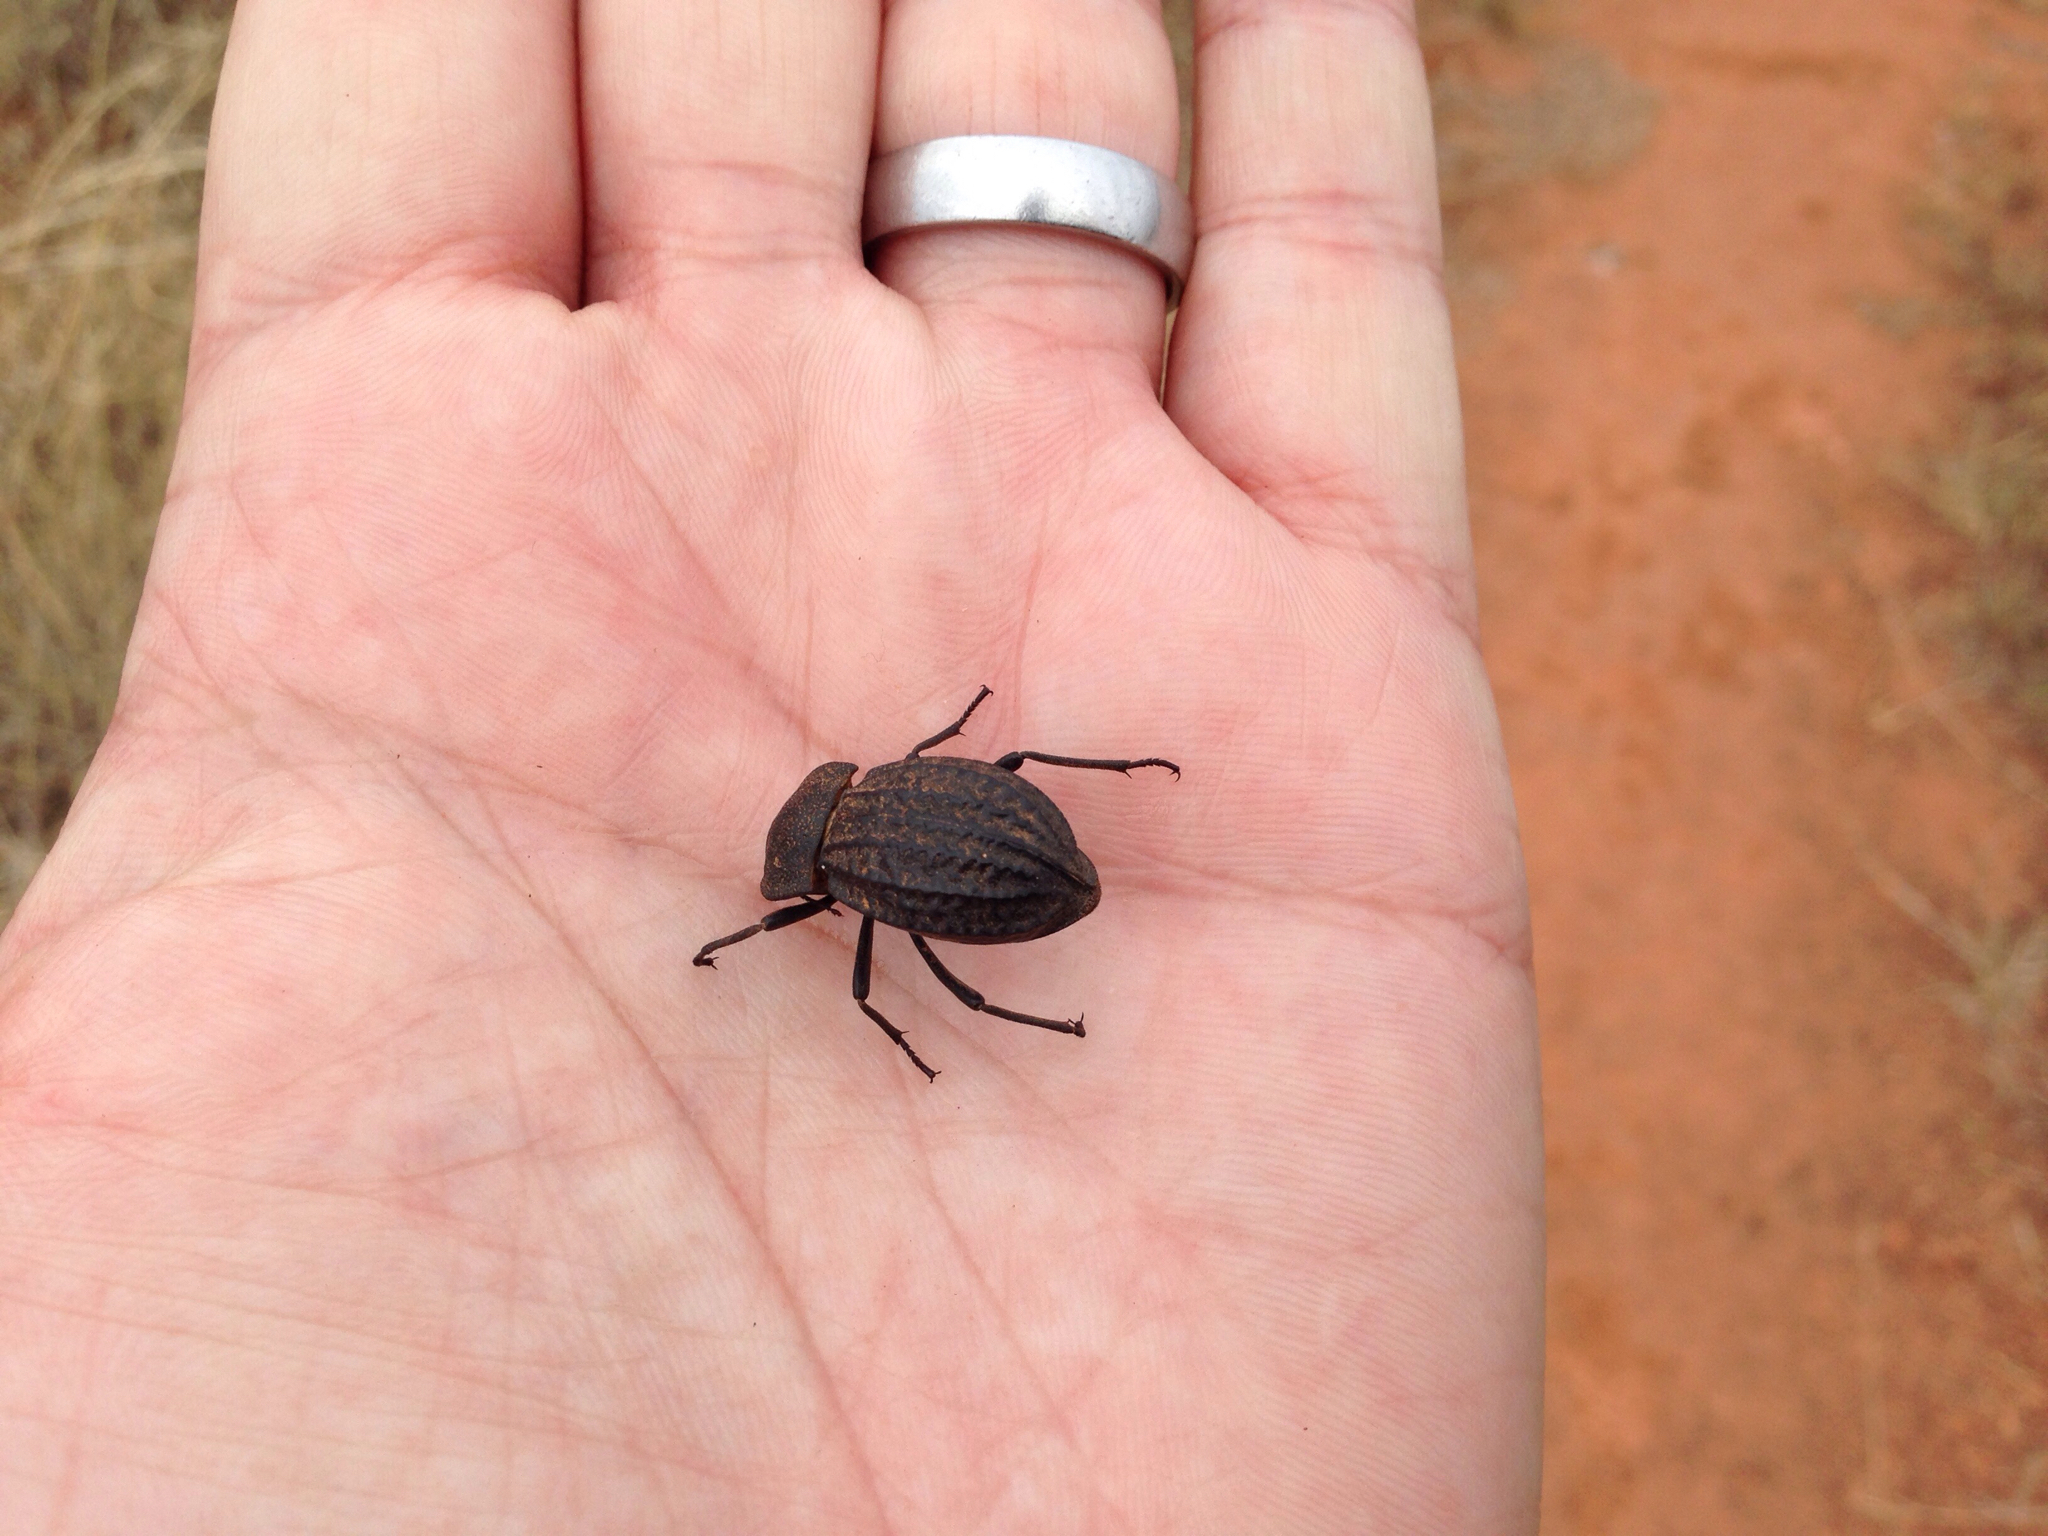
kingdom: Animalia
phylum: Arthropoda
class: Insecta
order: Coleoptera
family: Tenebrionidae
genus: Philolithus
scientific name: Philolithus sordidus
